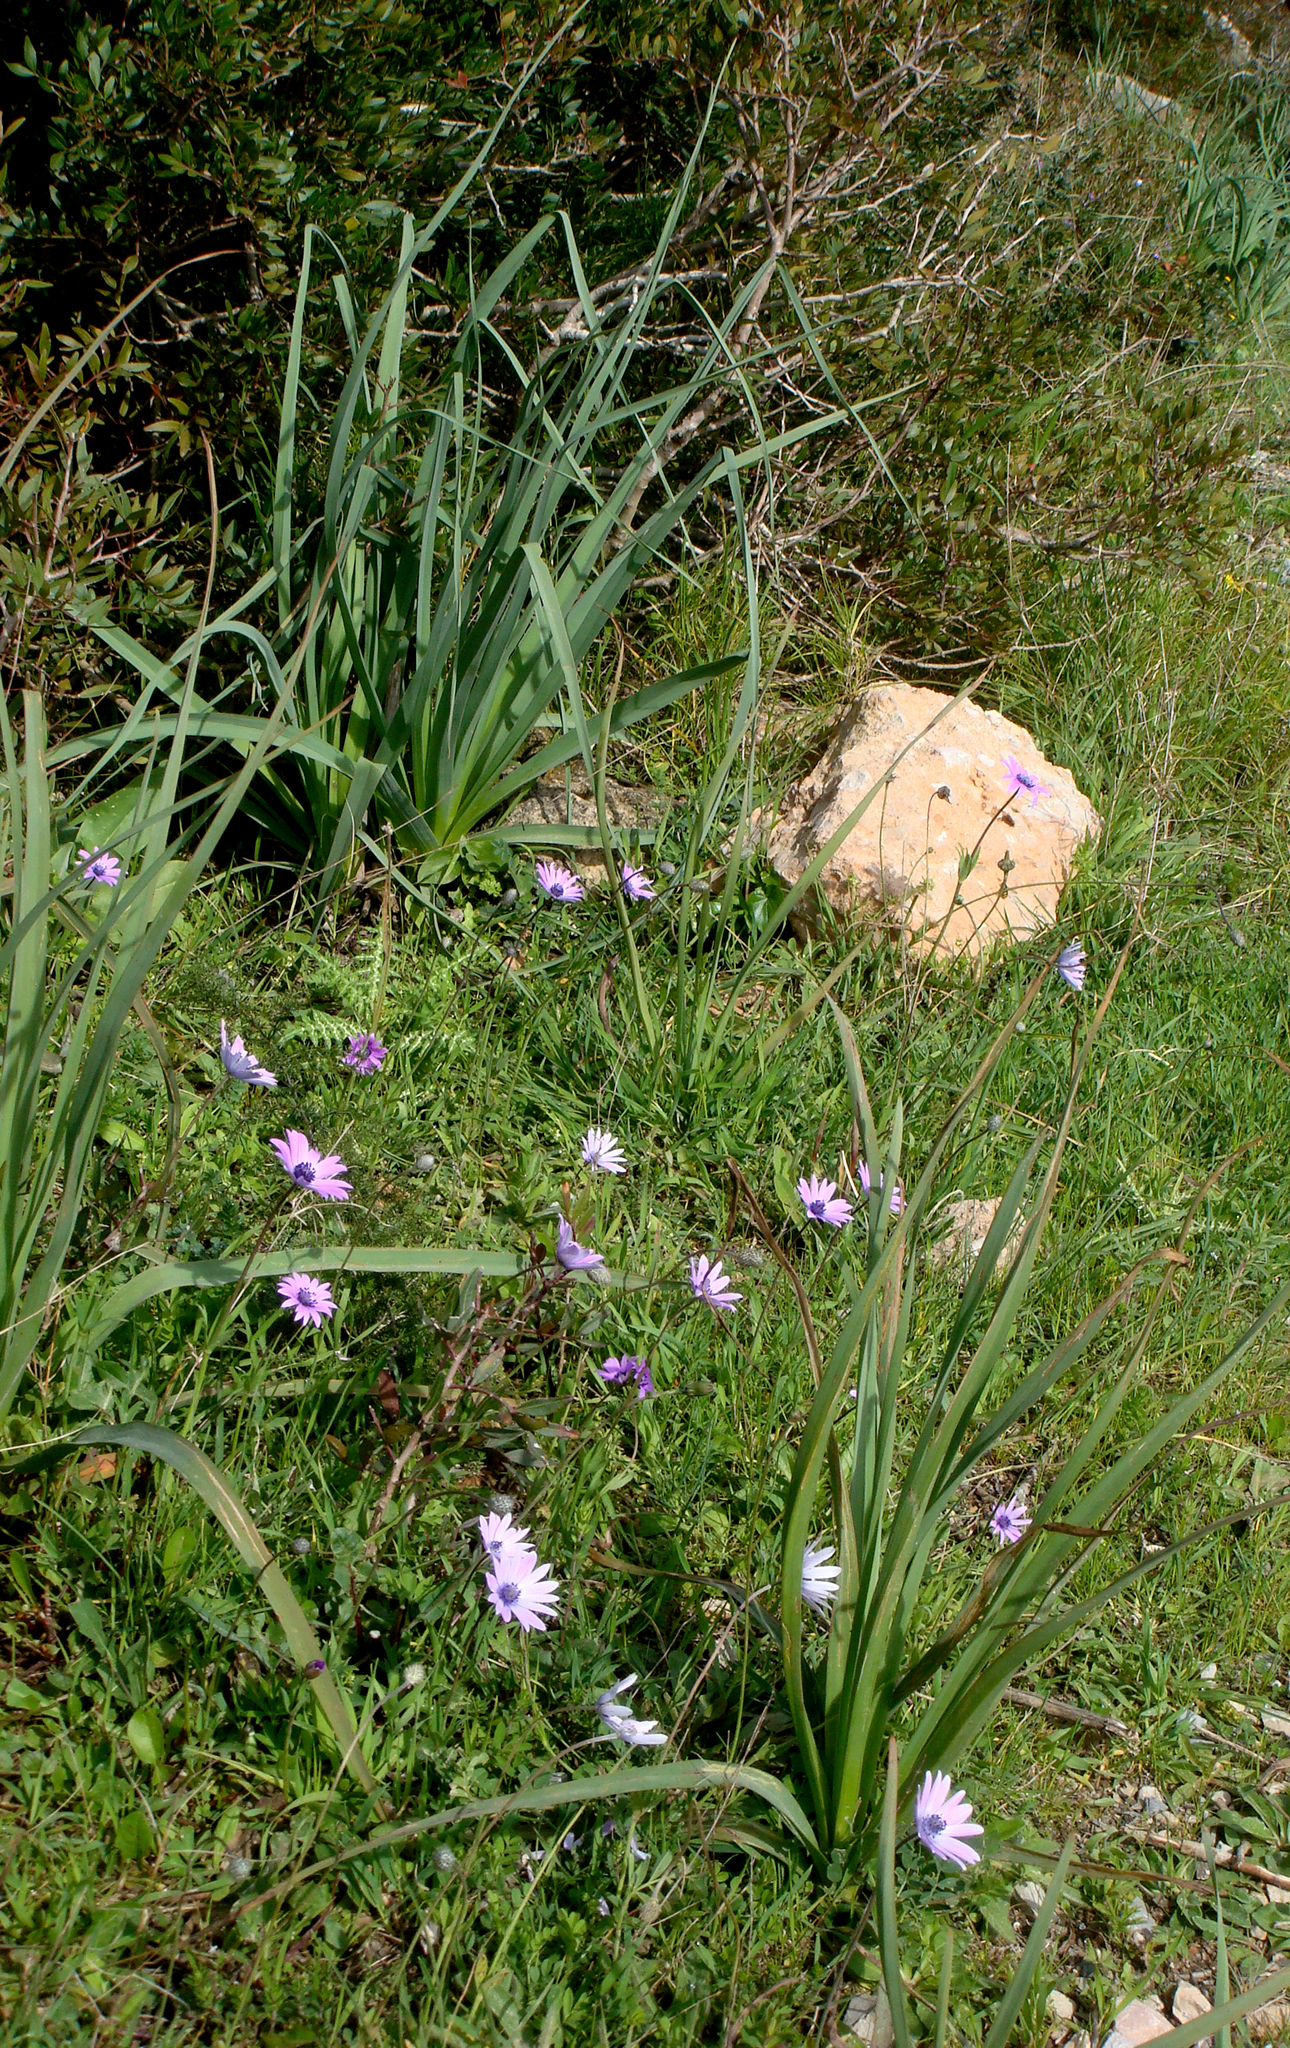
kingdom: Plantae
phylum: Tracheophyta
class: Magnoliopsida
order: Ranunculales
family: Ranunculaceae
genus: Anemone
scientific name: Anemone hortensis
